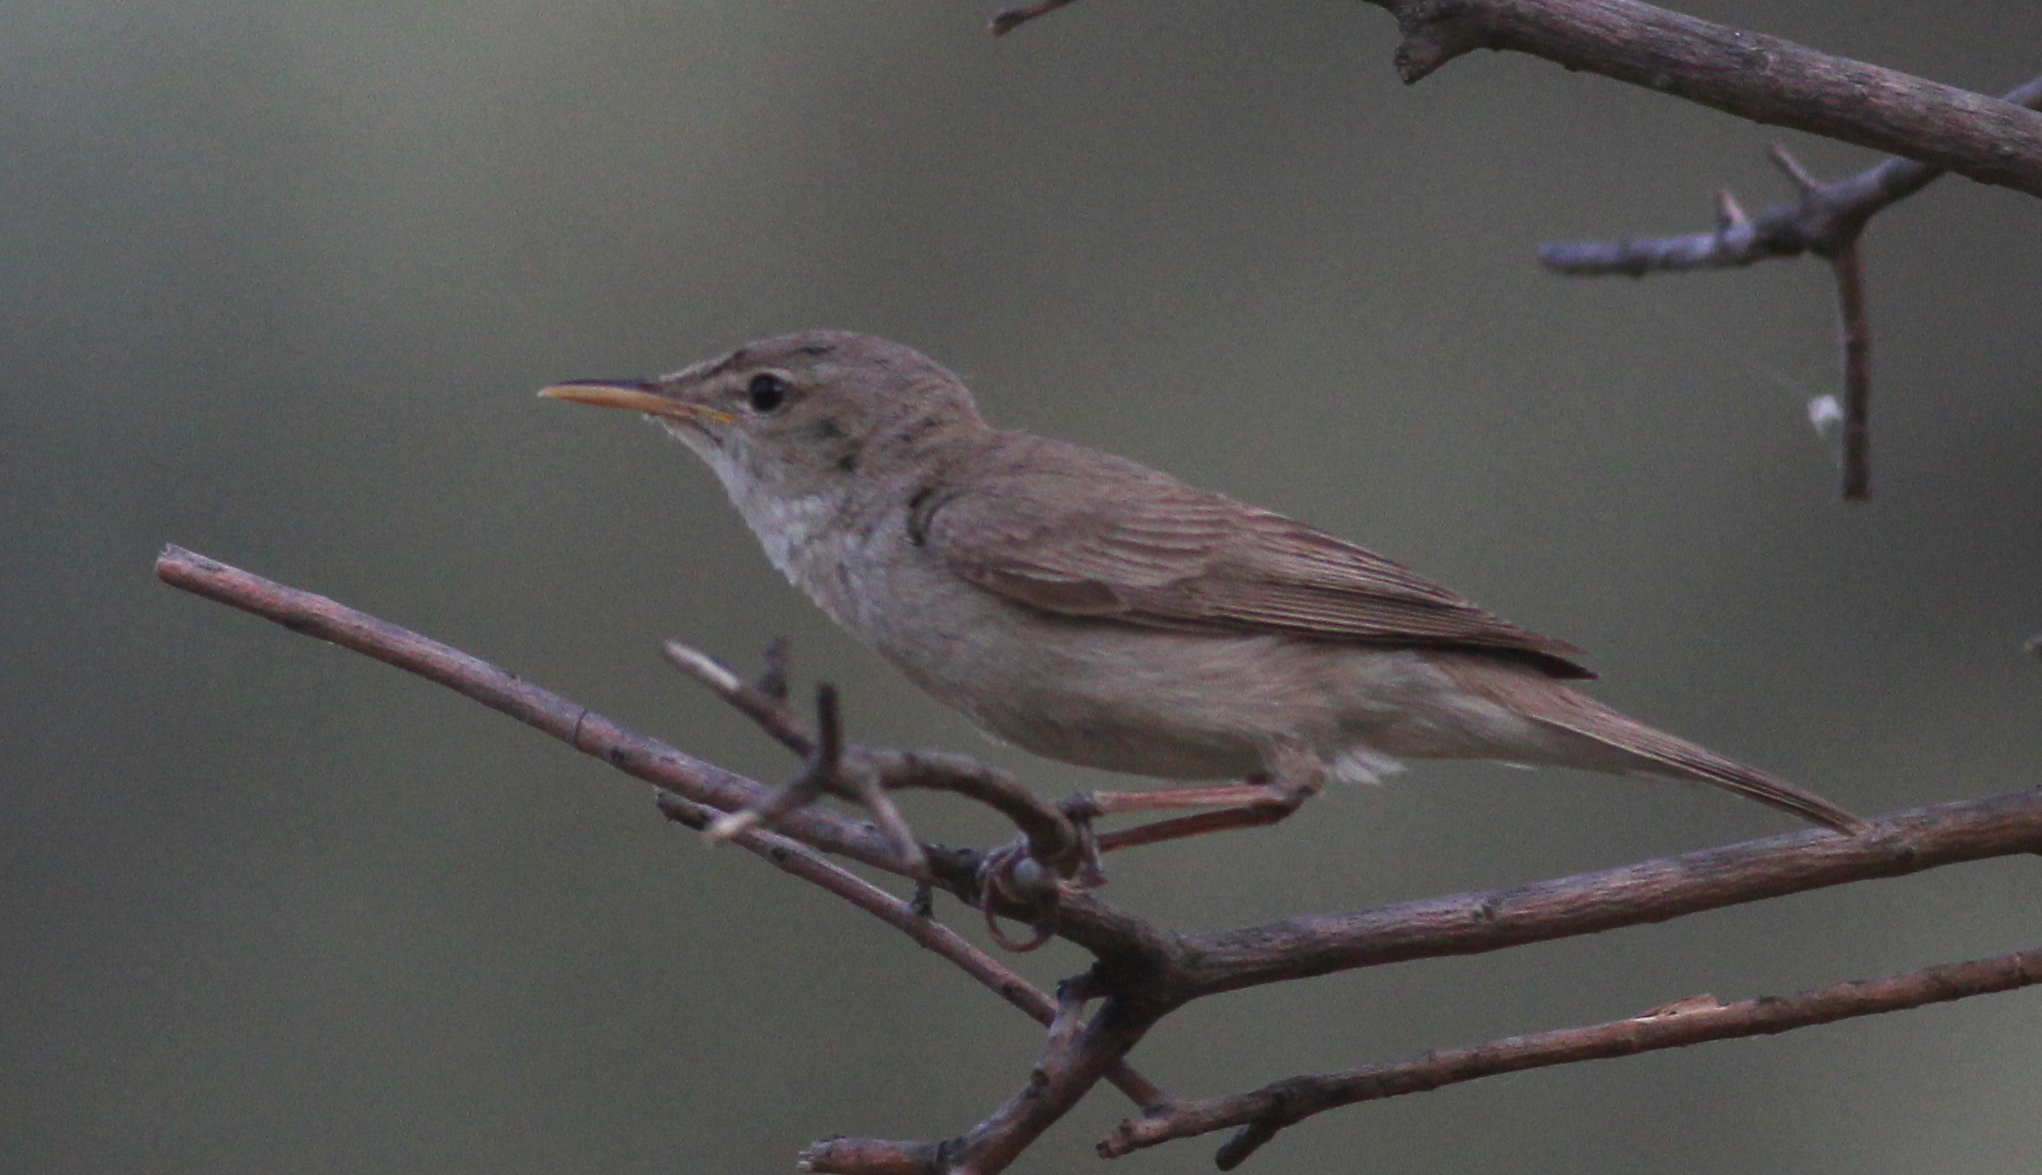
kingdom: Animalia
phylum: Chordata
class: Aves
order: Passeriformes
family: Acrocephalidae
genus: Iduna
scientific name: Iduna pallida
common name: Eastern olivaceous warbler
